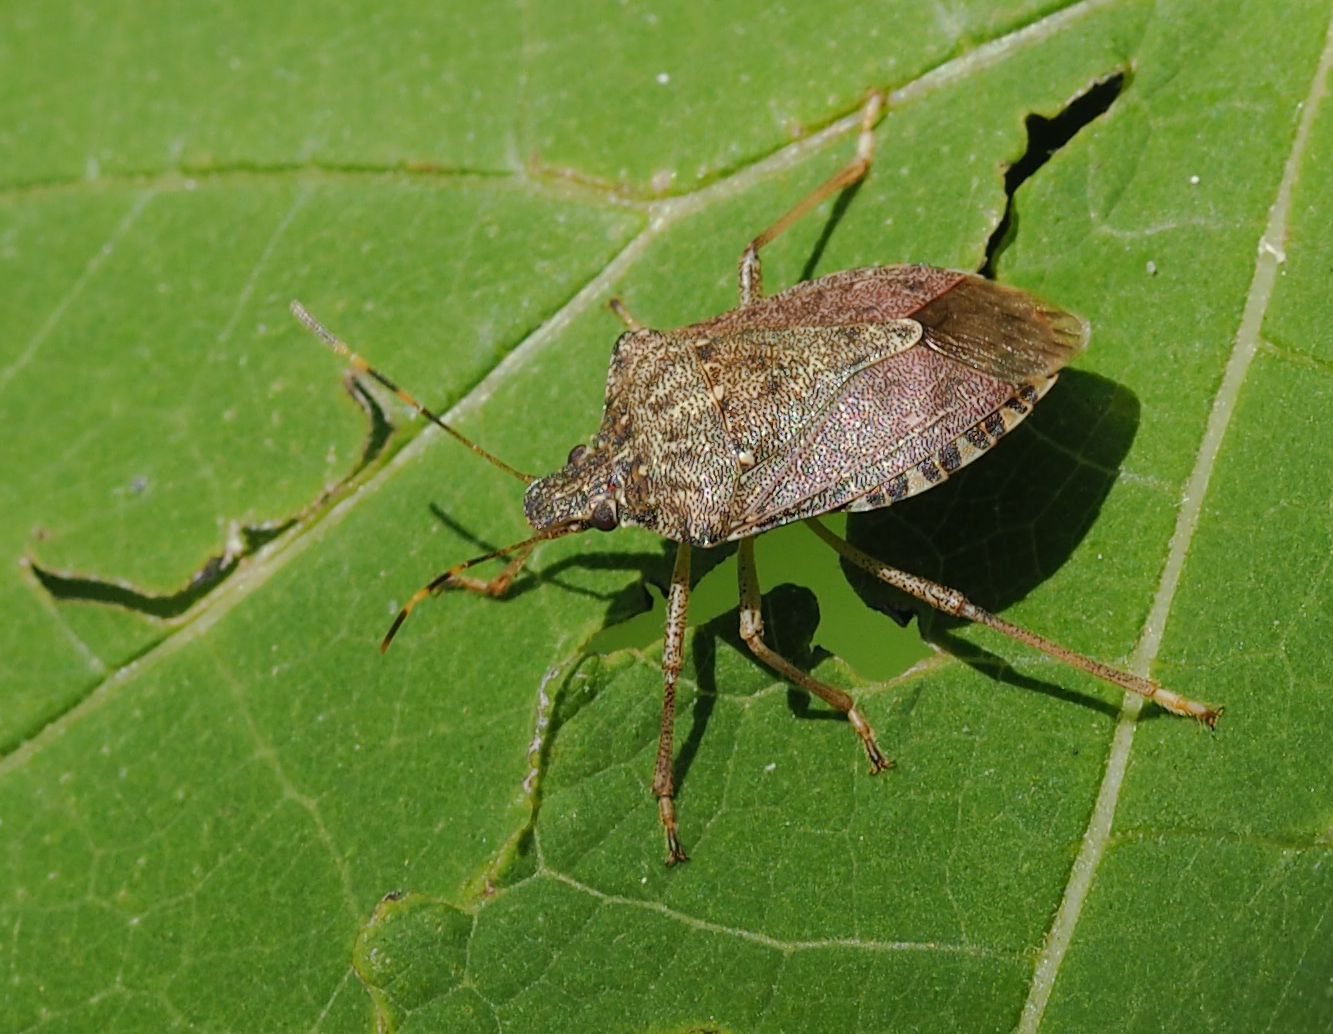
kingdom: Animalia
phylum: Arthropoda
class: Insecta
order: Hemiptera
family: Pentatomidae
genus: Halyomorpha
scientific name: Halyomorpha halys
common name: Brown marmorated stink bug
